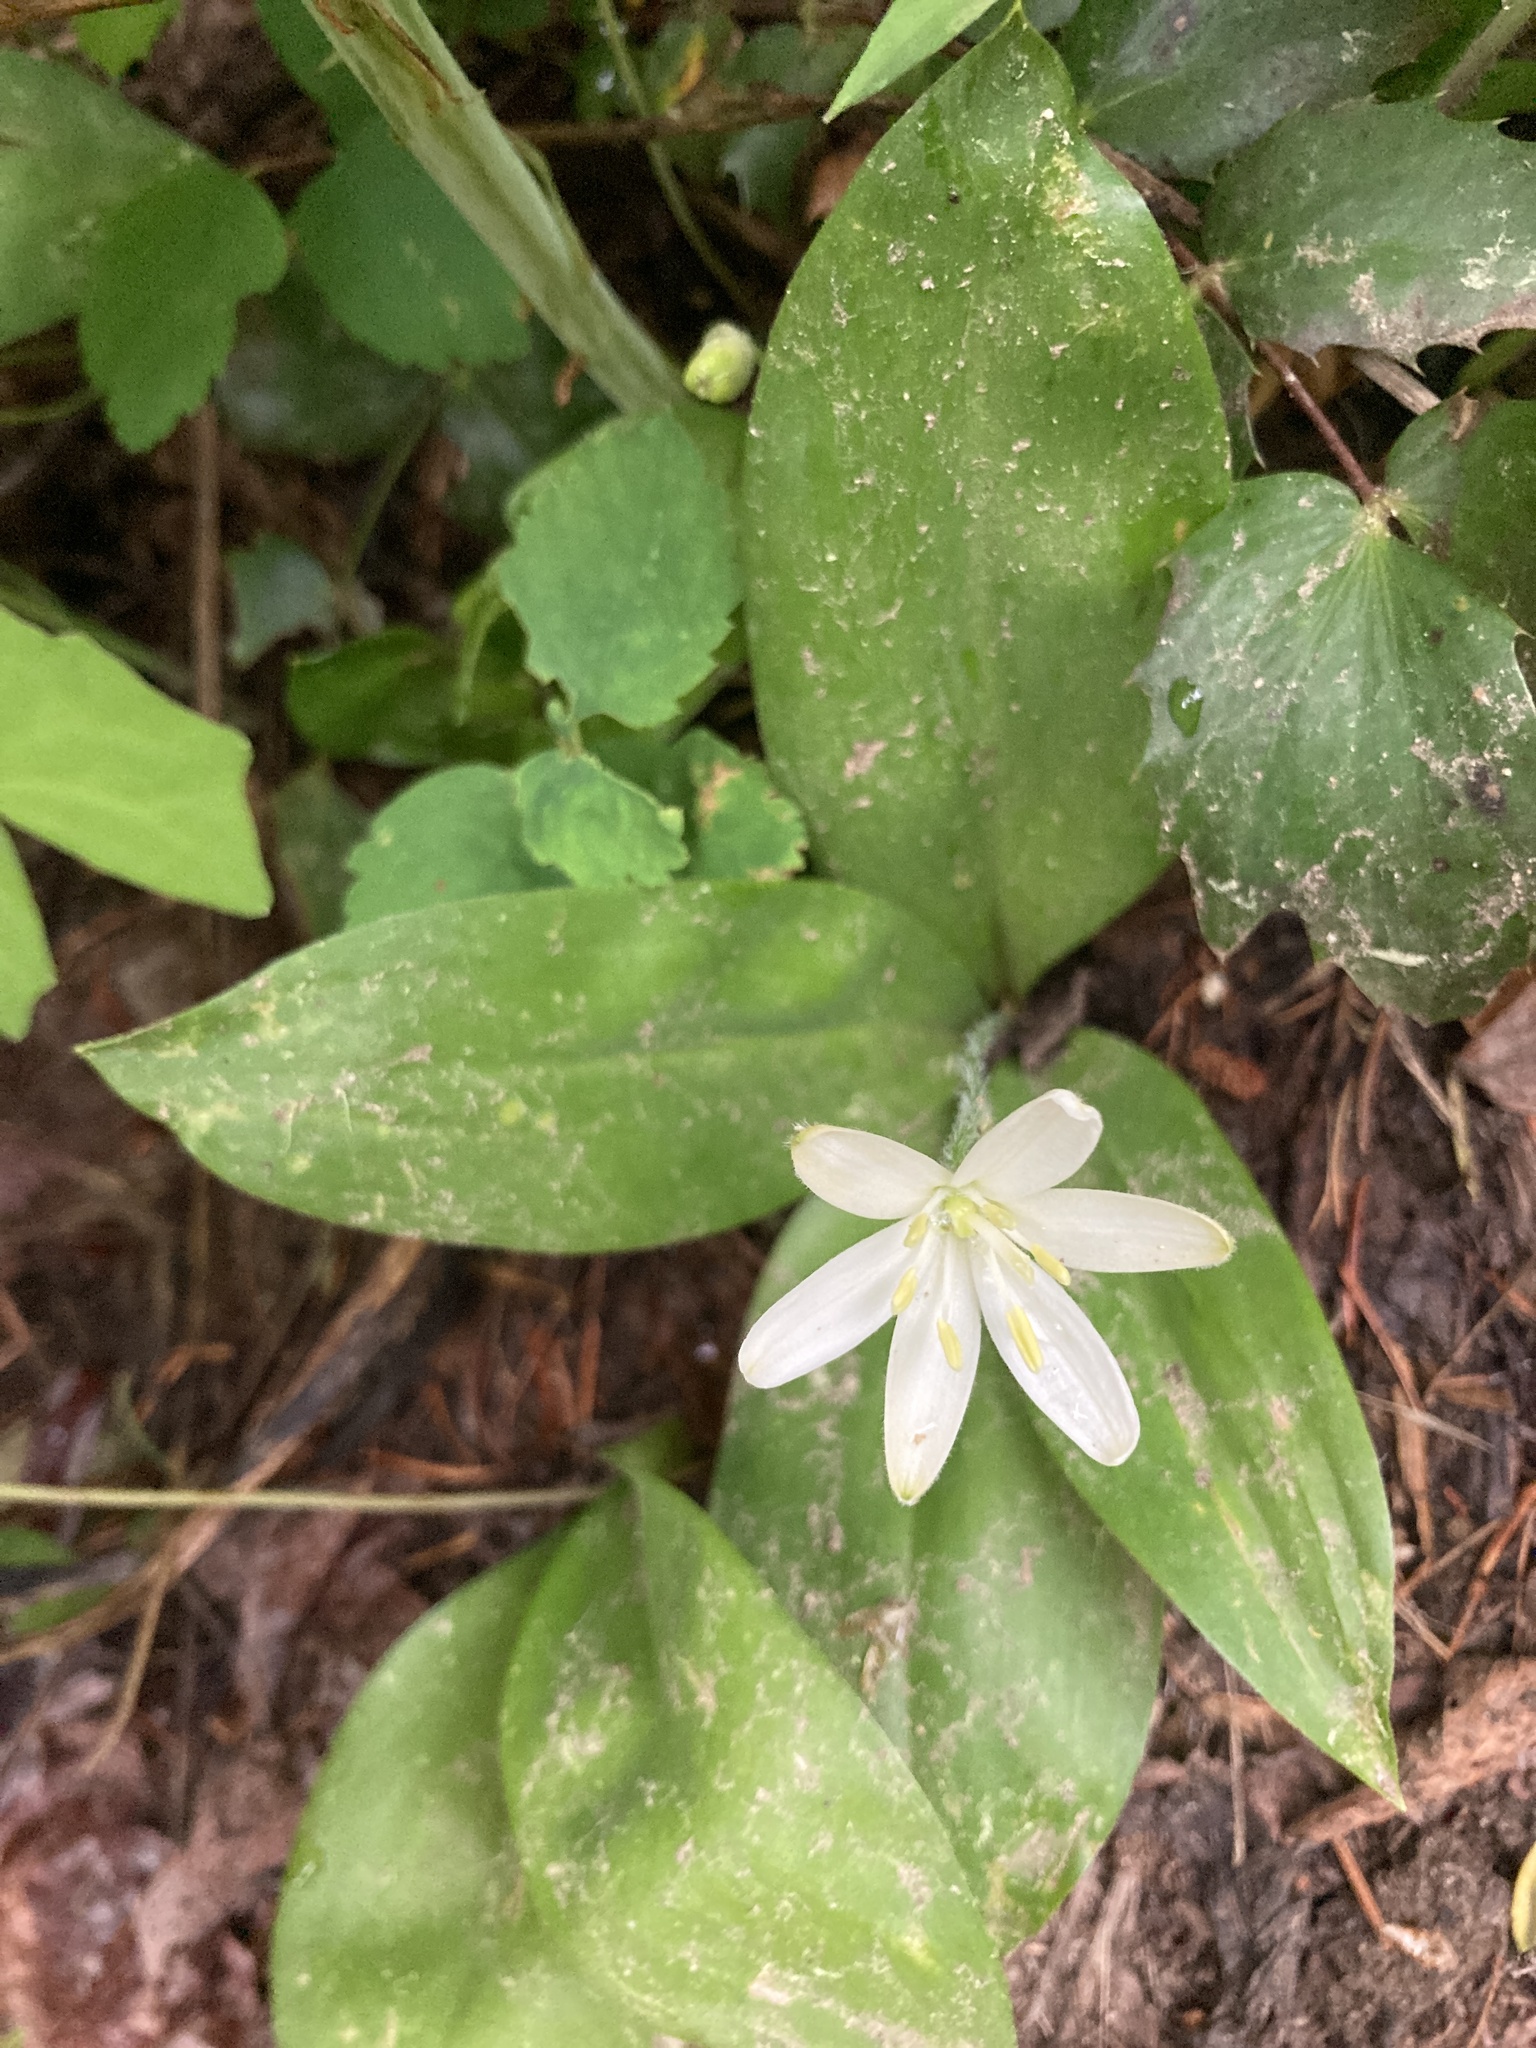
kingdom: Plantae
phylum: Tracheophyta
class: Liliopsida
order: Liliales
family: Liliaceae
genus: Clintonia
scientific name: Clintonia uniflora
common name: Queen's cup
